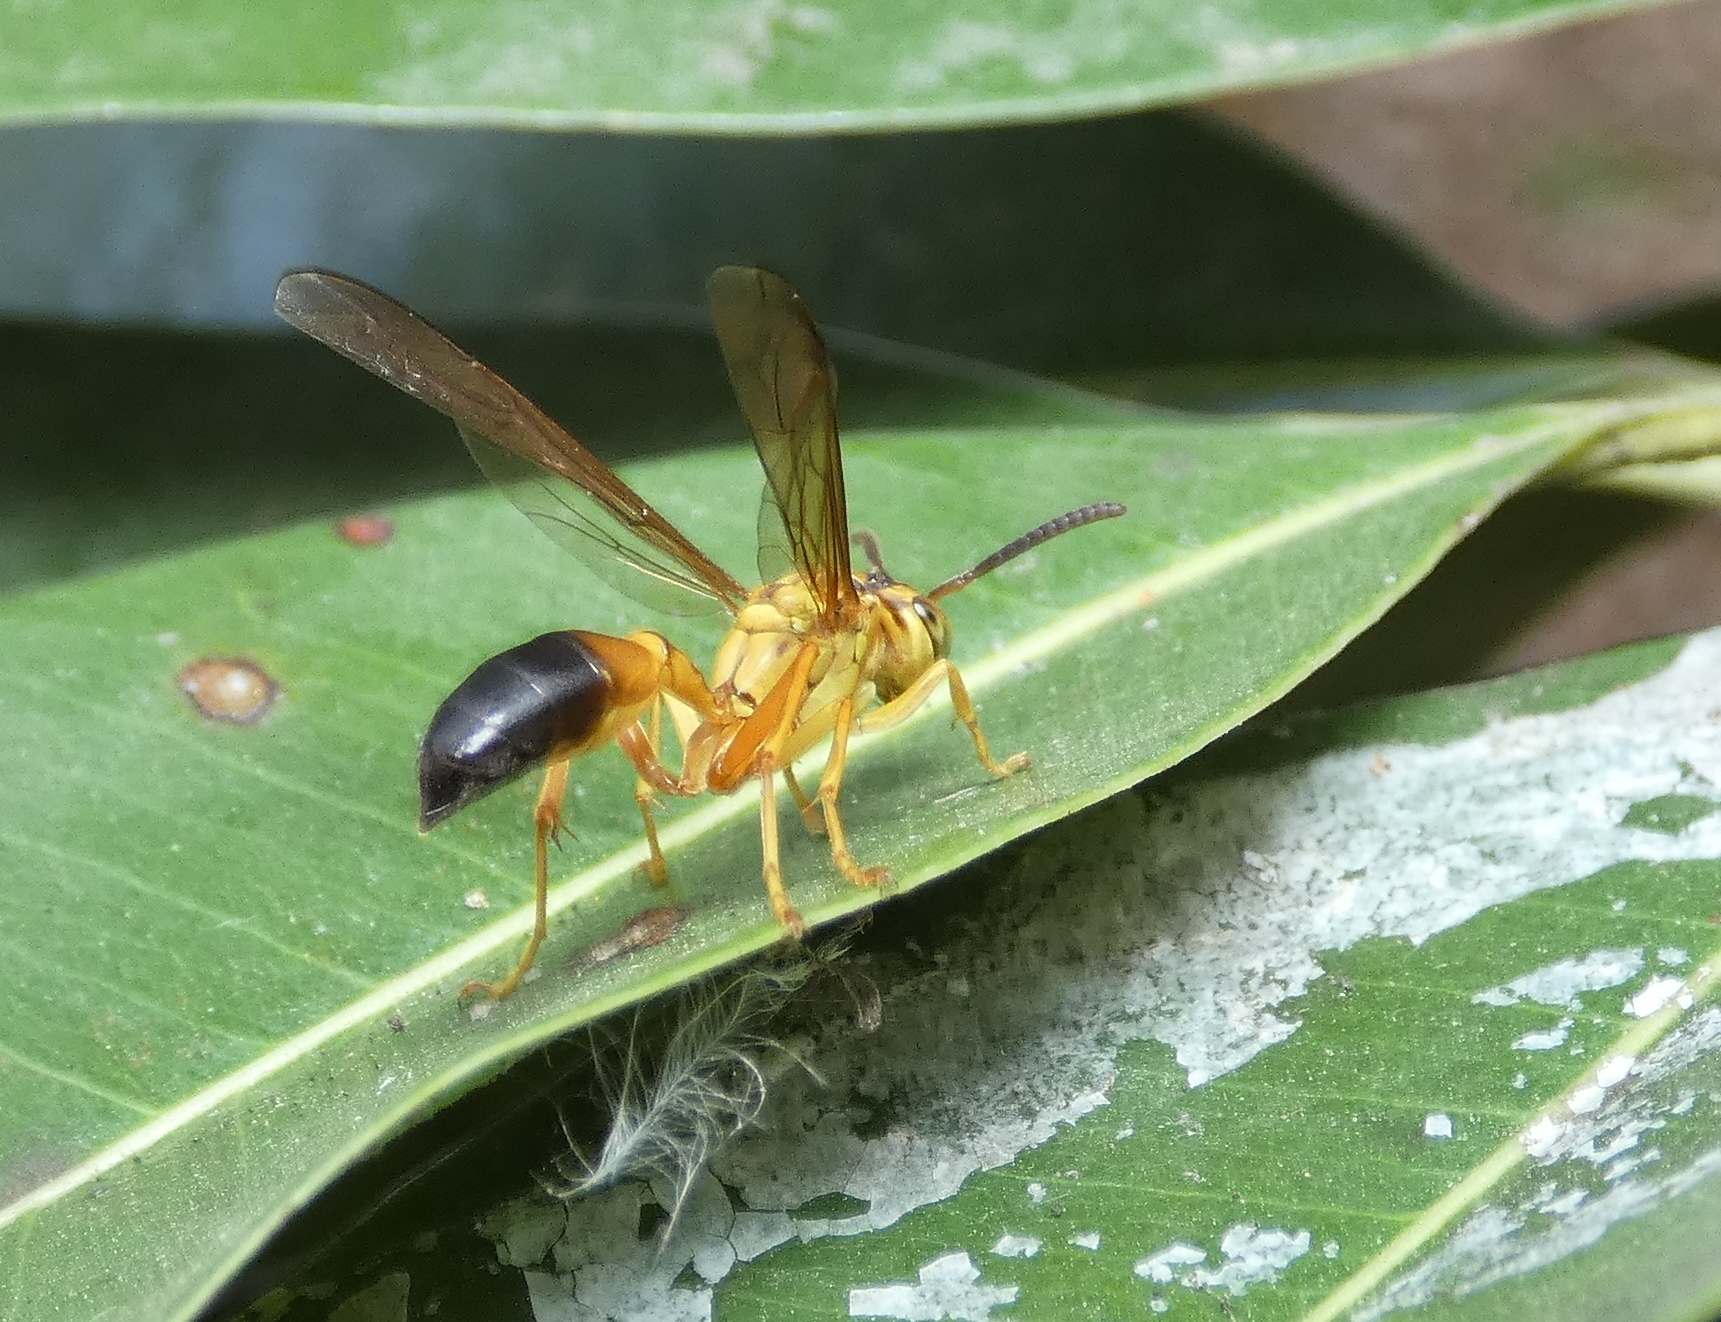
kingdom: Animalia
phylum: Arthropoda
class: Insecta
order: Hymenoptera
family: Vespidae
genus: Agelaia
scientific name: Agelaia pallipes
